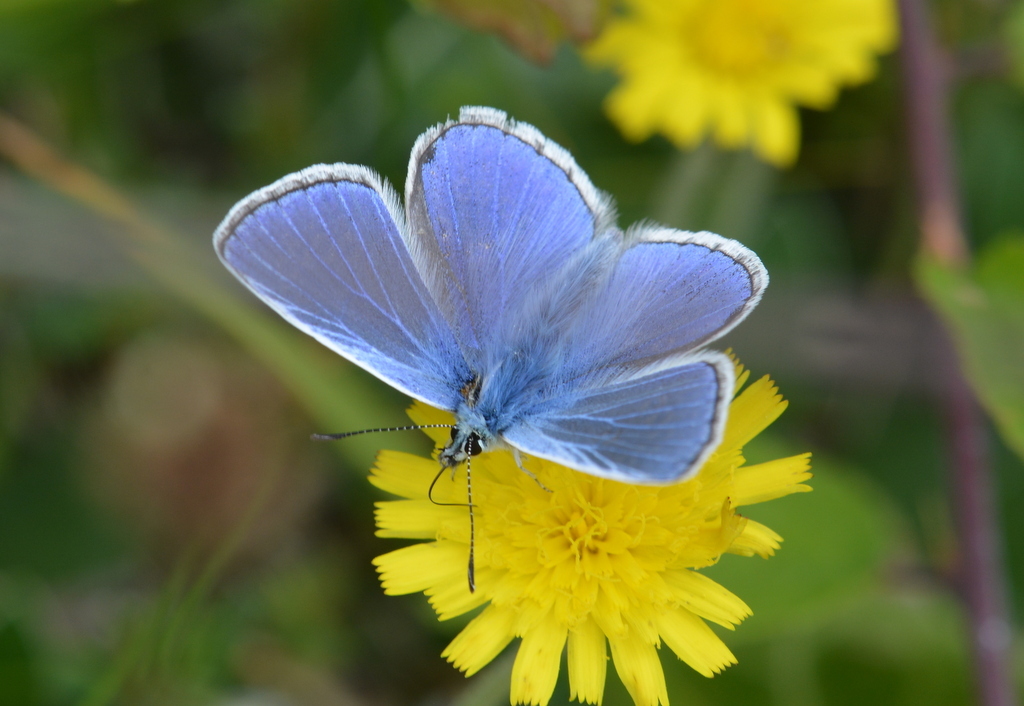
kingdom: Animalia
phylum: Arthropoda
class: Insecta
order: Lepidoptera
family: Lycaenidae
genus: Polyommatus
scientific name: Polyommatus icarus
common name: Common blue
